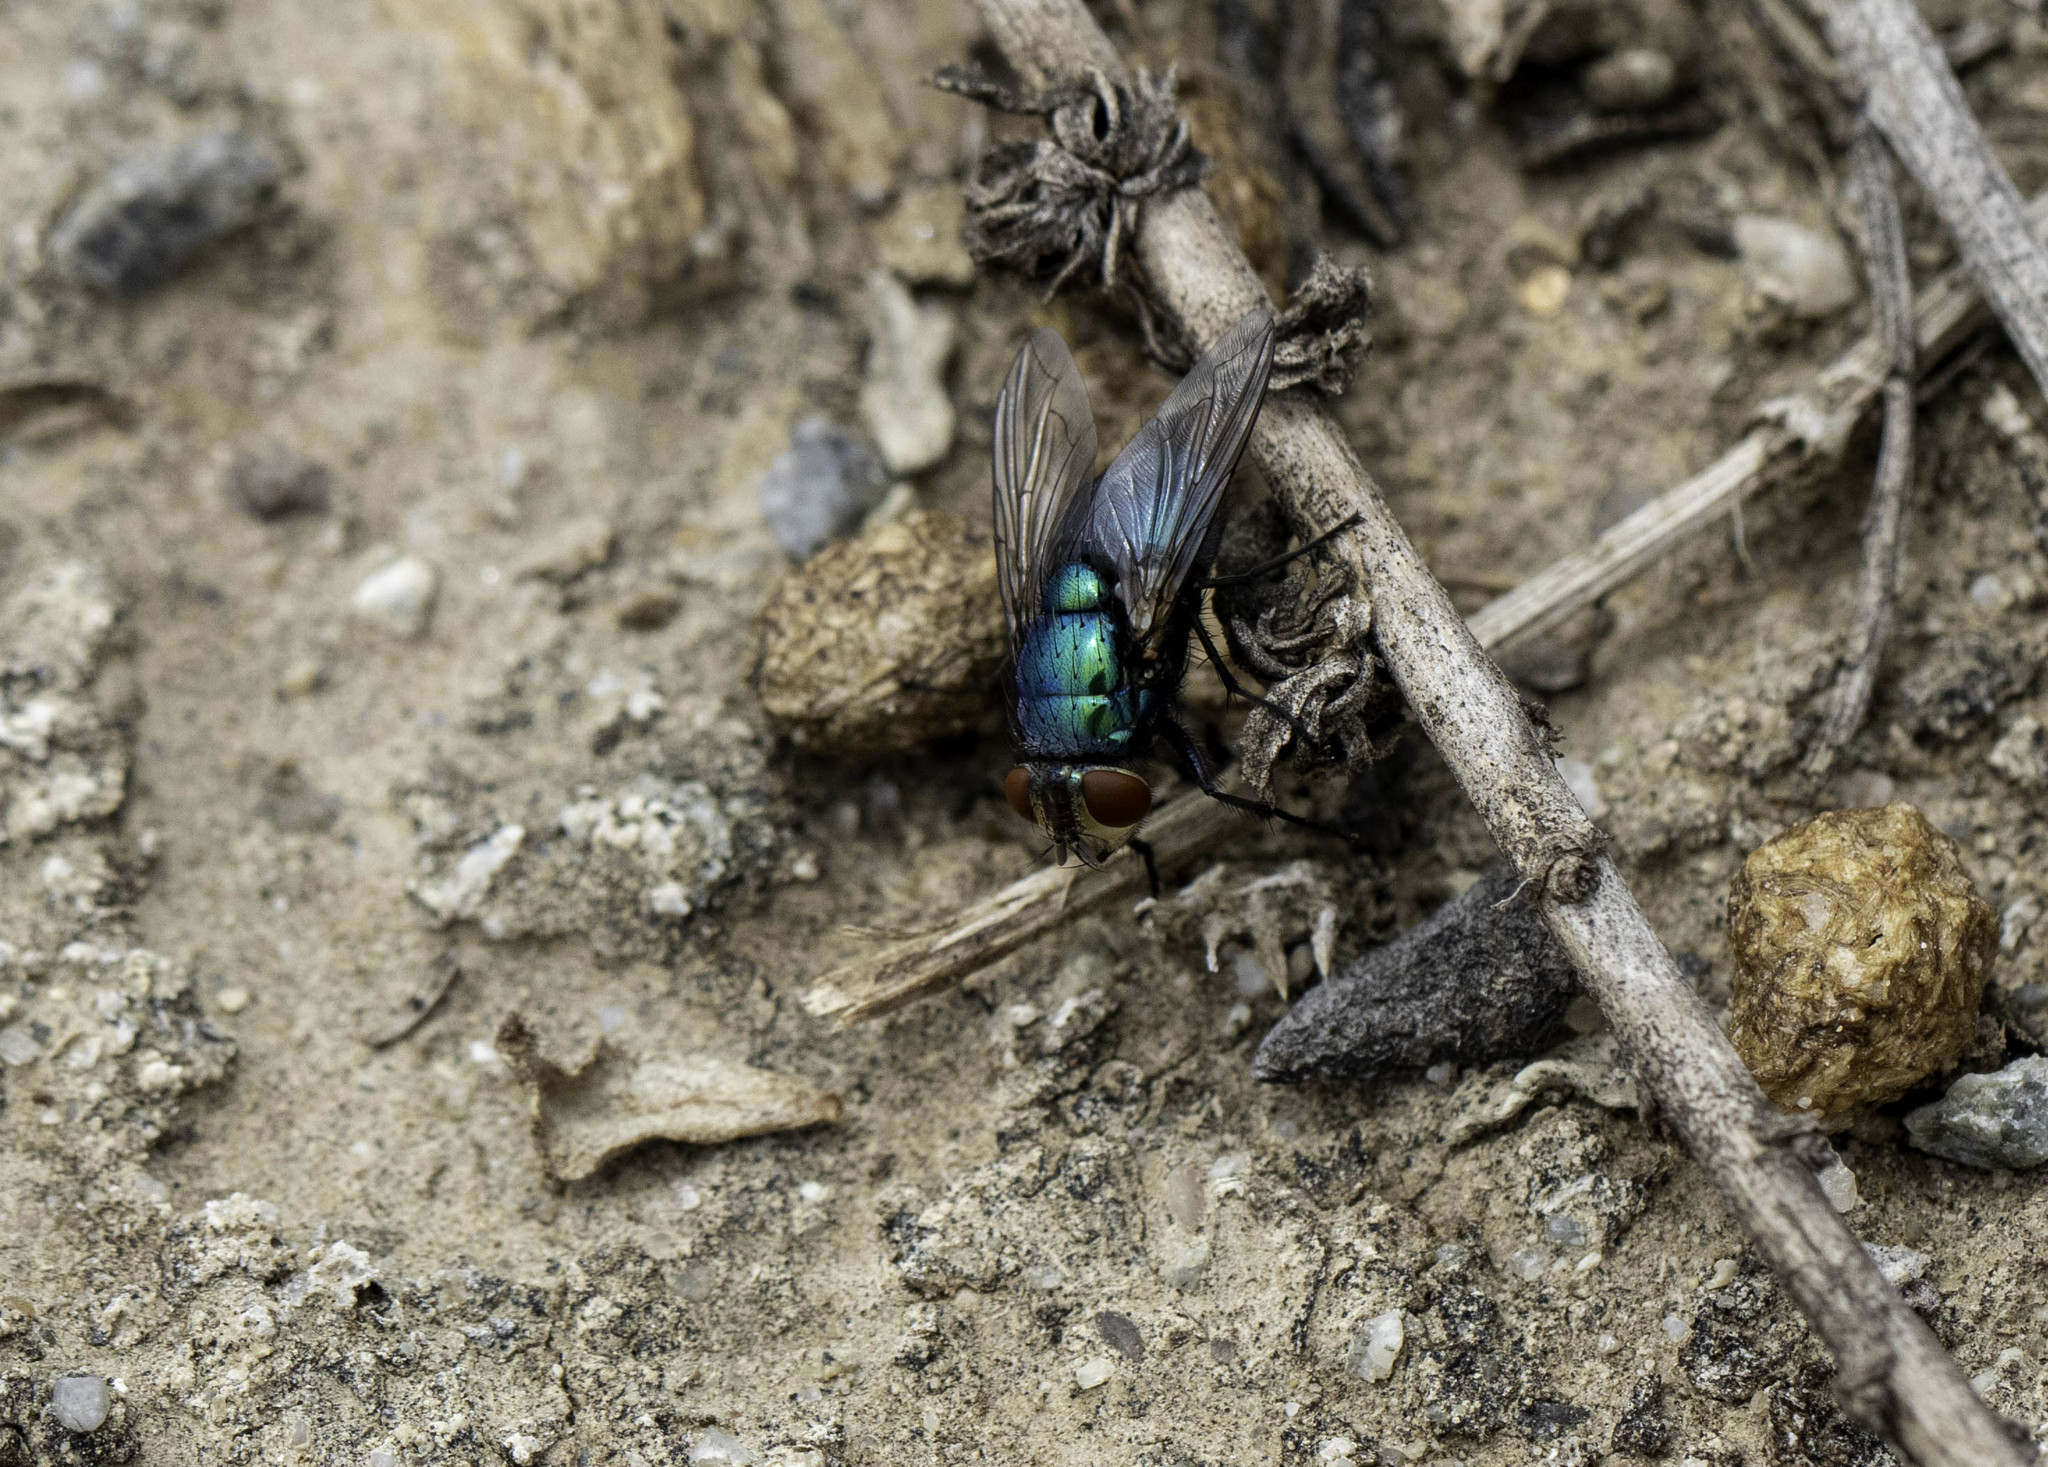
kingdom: Animalia
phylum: Arthropoda
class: Insecta
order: Diptera
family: Calliphoridae
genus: Lucilia
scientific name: Lucilia sericata
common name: Blow fly
